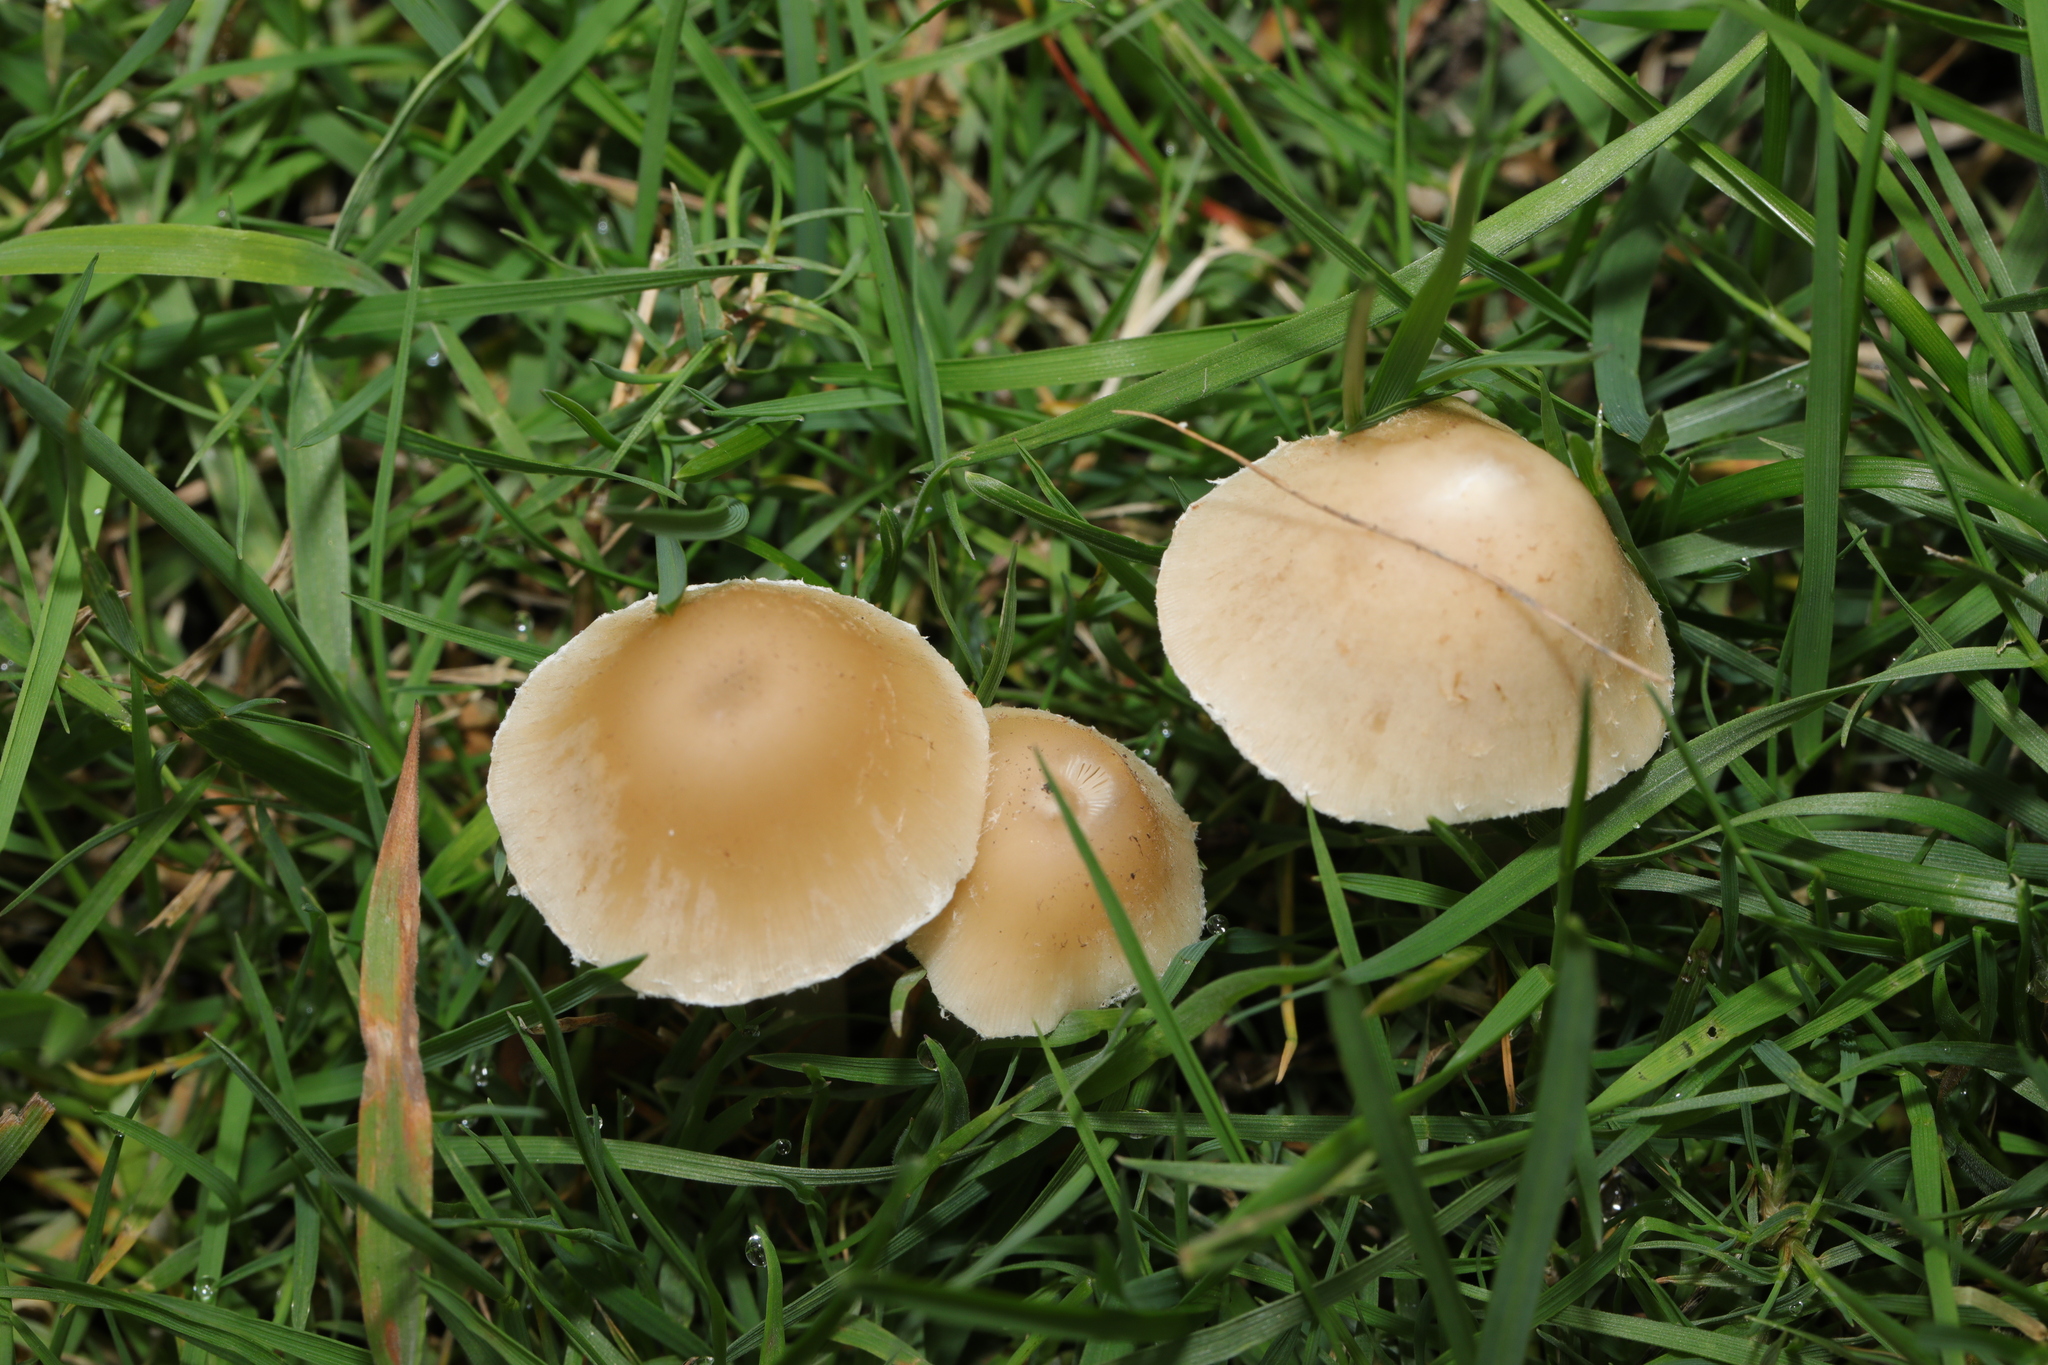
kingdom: Fungi
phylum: Basidiomycota
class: Agaricomycetes
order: Agaricales
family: Psathyrellaceae
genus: Candolleomyces
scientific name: Candolleomyces candolleanus
